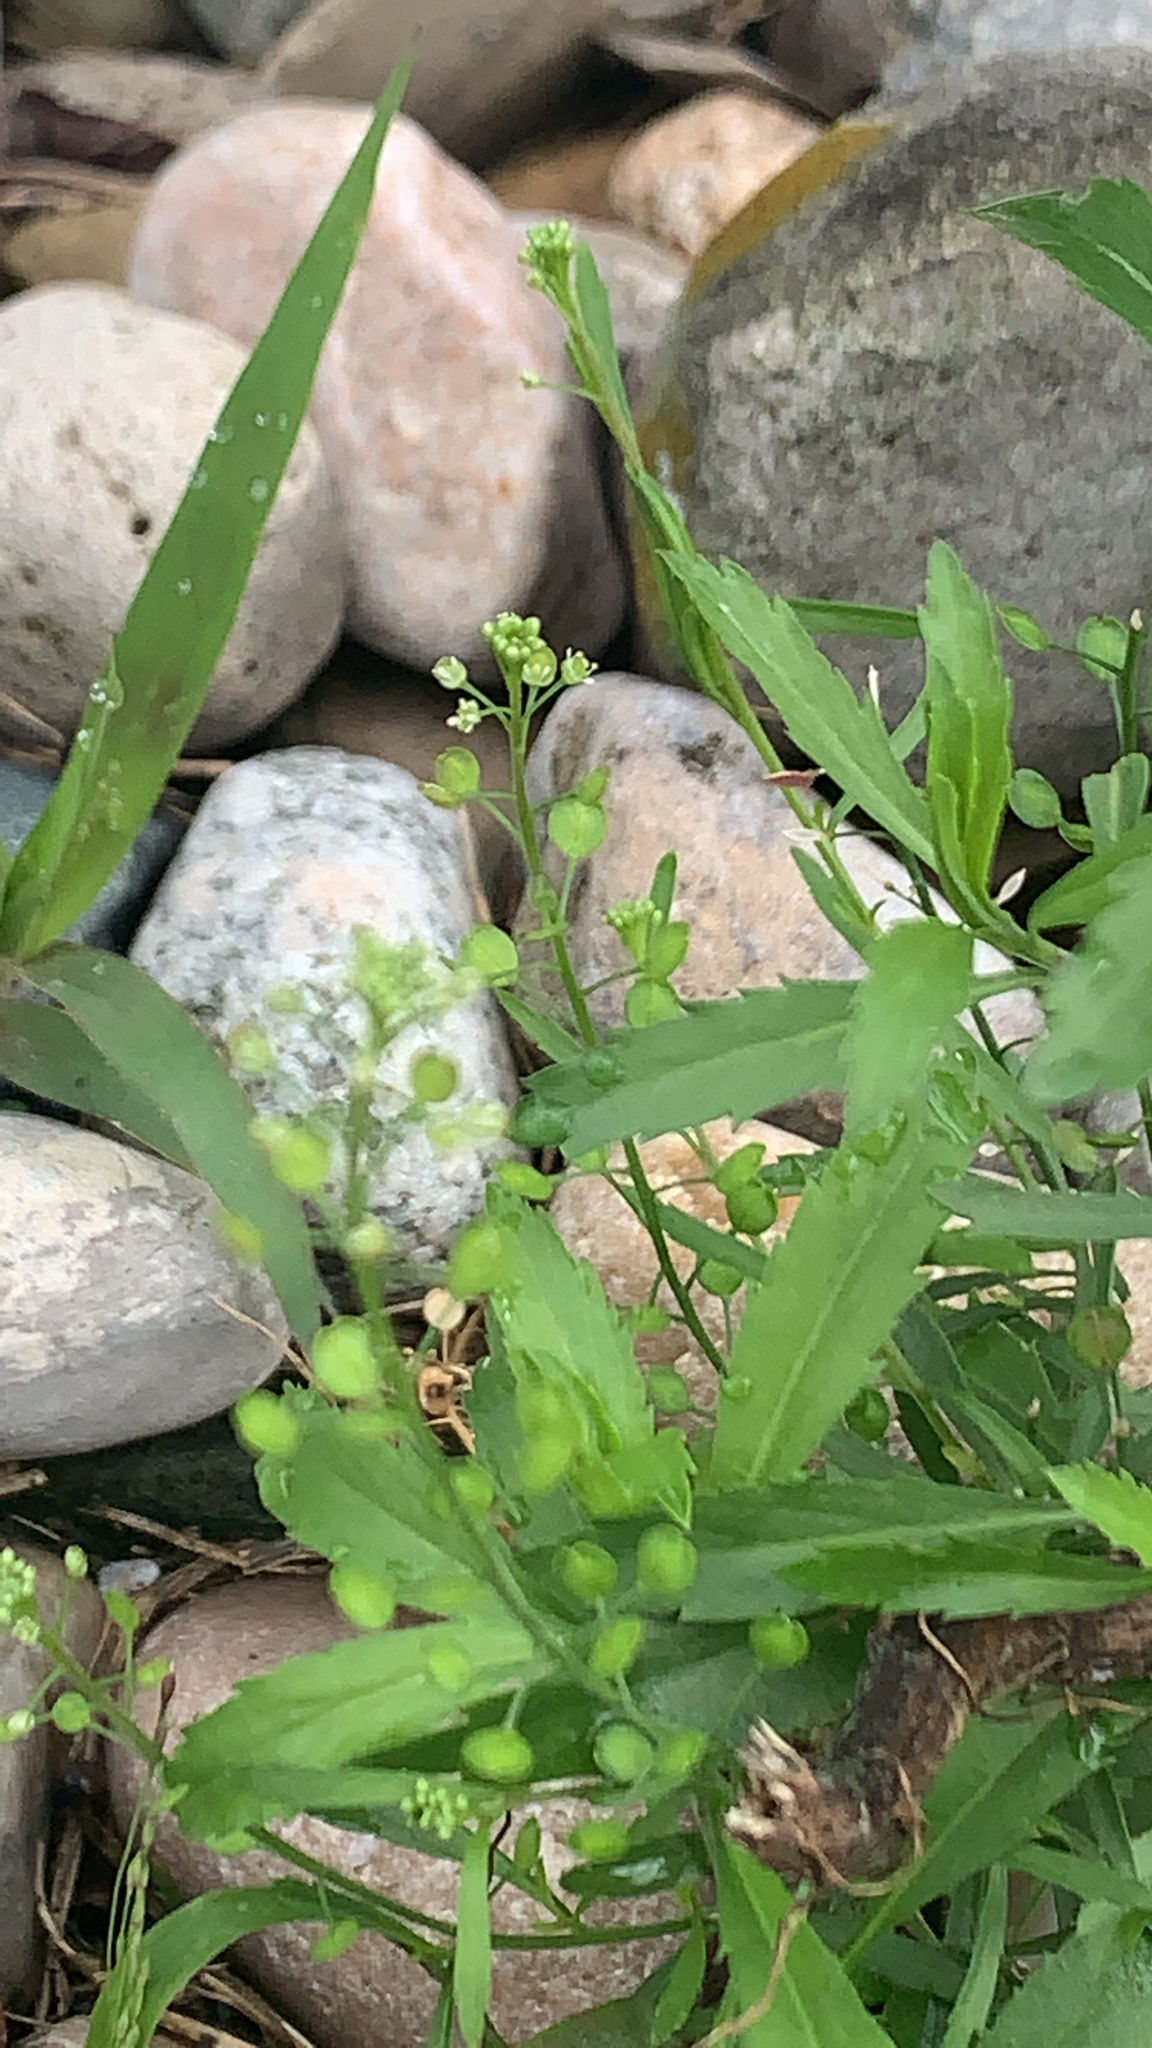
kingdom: Plantae
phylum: Tracheophyta
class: Magnoliopsida
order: Brassicales
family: Brassicaceae
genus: Lepidium
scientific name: Lepidium virginicum
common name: Least pepperwort
